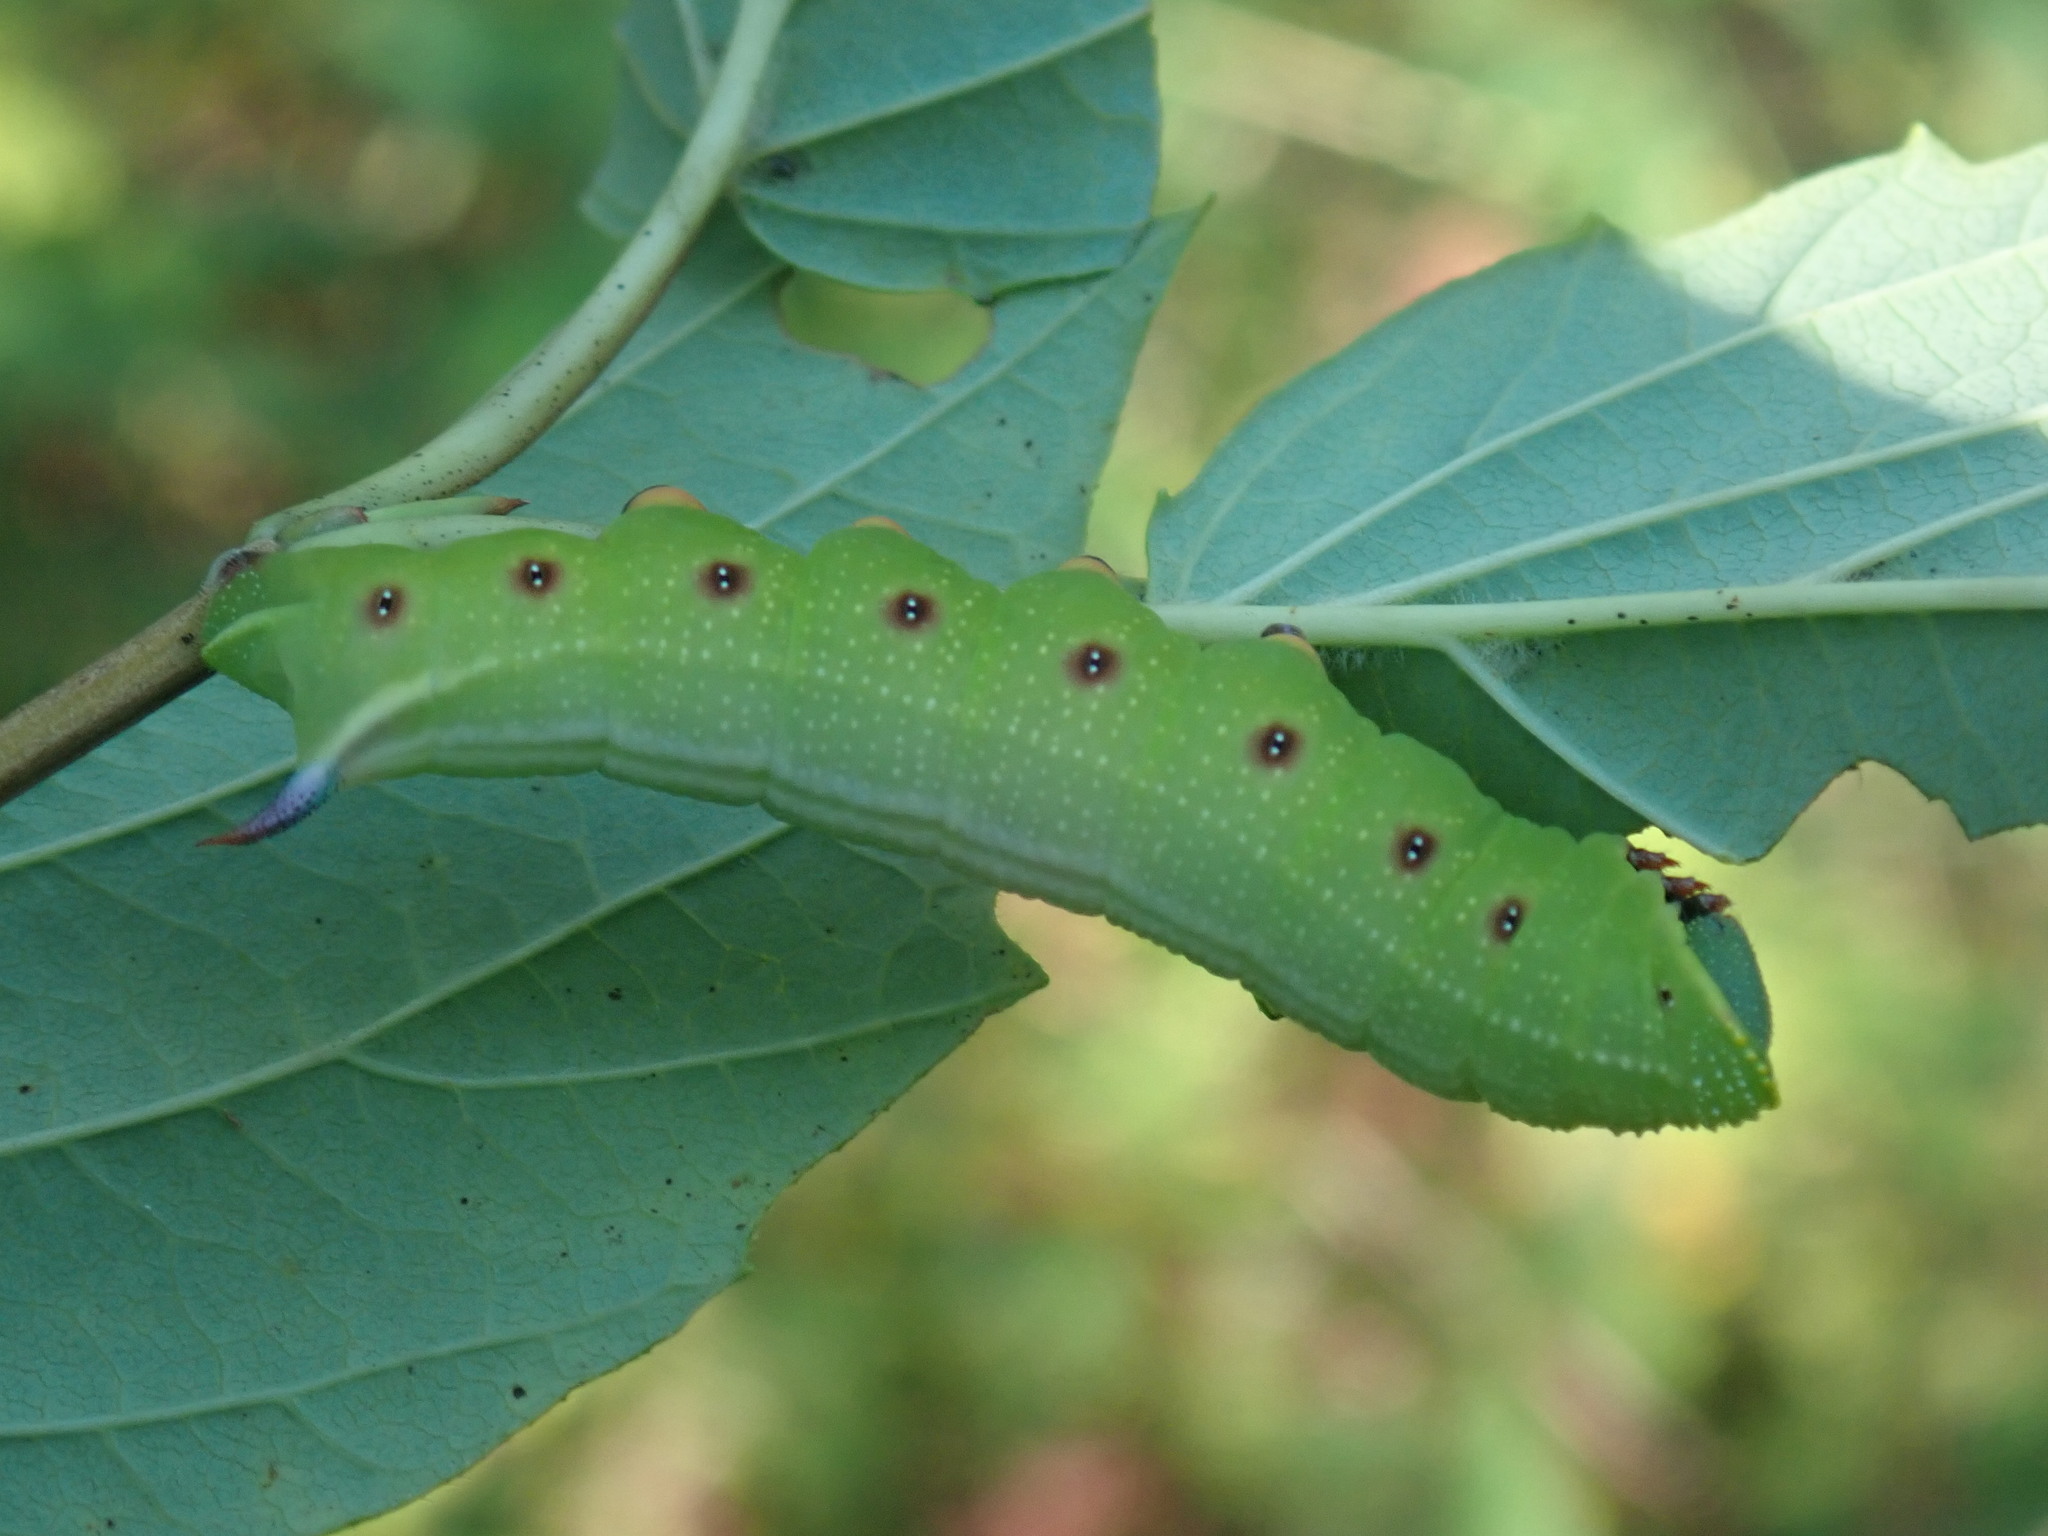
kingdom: Animalia
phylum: Arthropoda
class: Insecta
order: Lepidoptera
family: Sphingidae
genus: Hemaris
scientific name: Hemaris thysbe
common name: Common clear-wing
